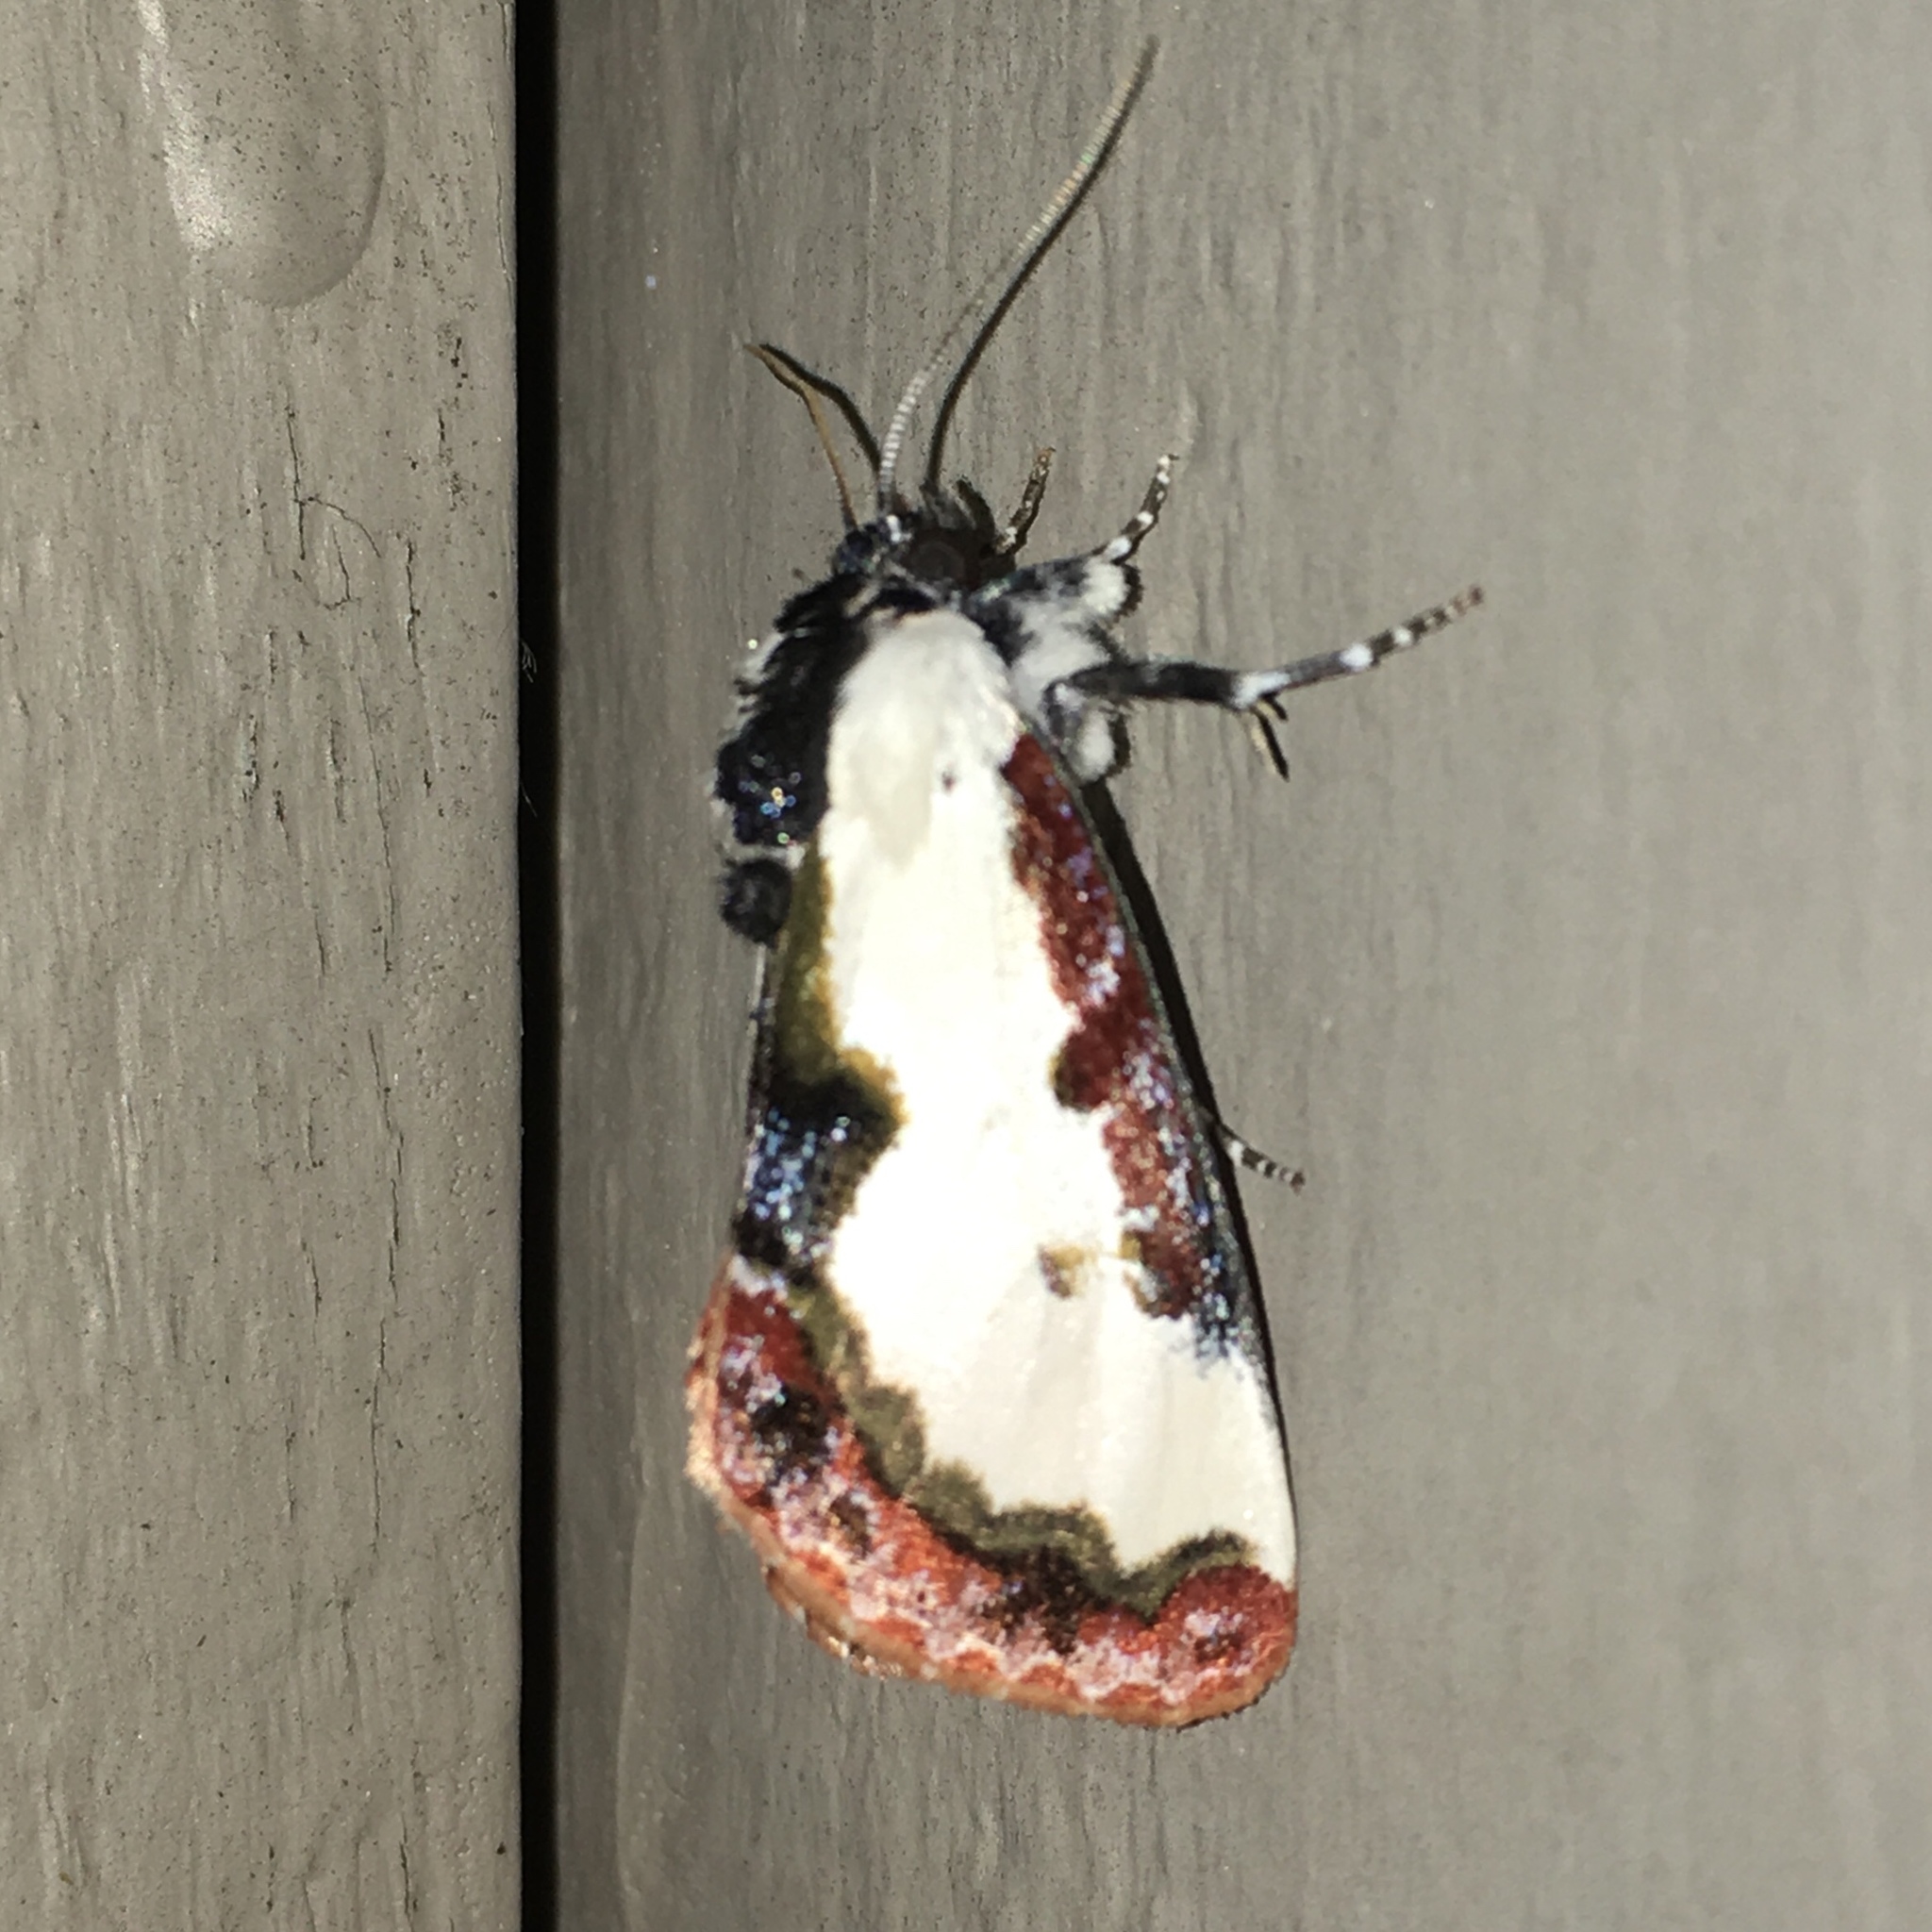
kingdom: Animalia
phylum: Arthropoda
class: Insecta
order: Lepidoptera
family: Noctuidae
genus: Eudryas
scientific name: Eudryas unio
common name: Pearly wood-nymph
